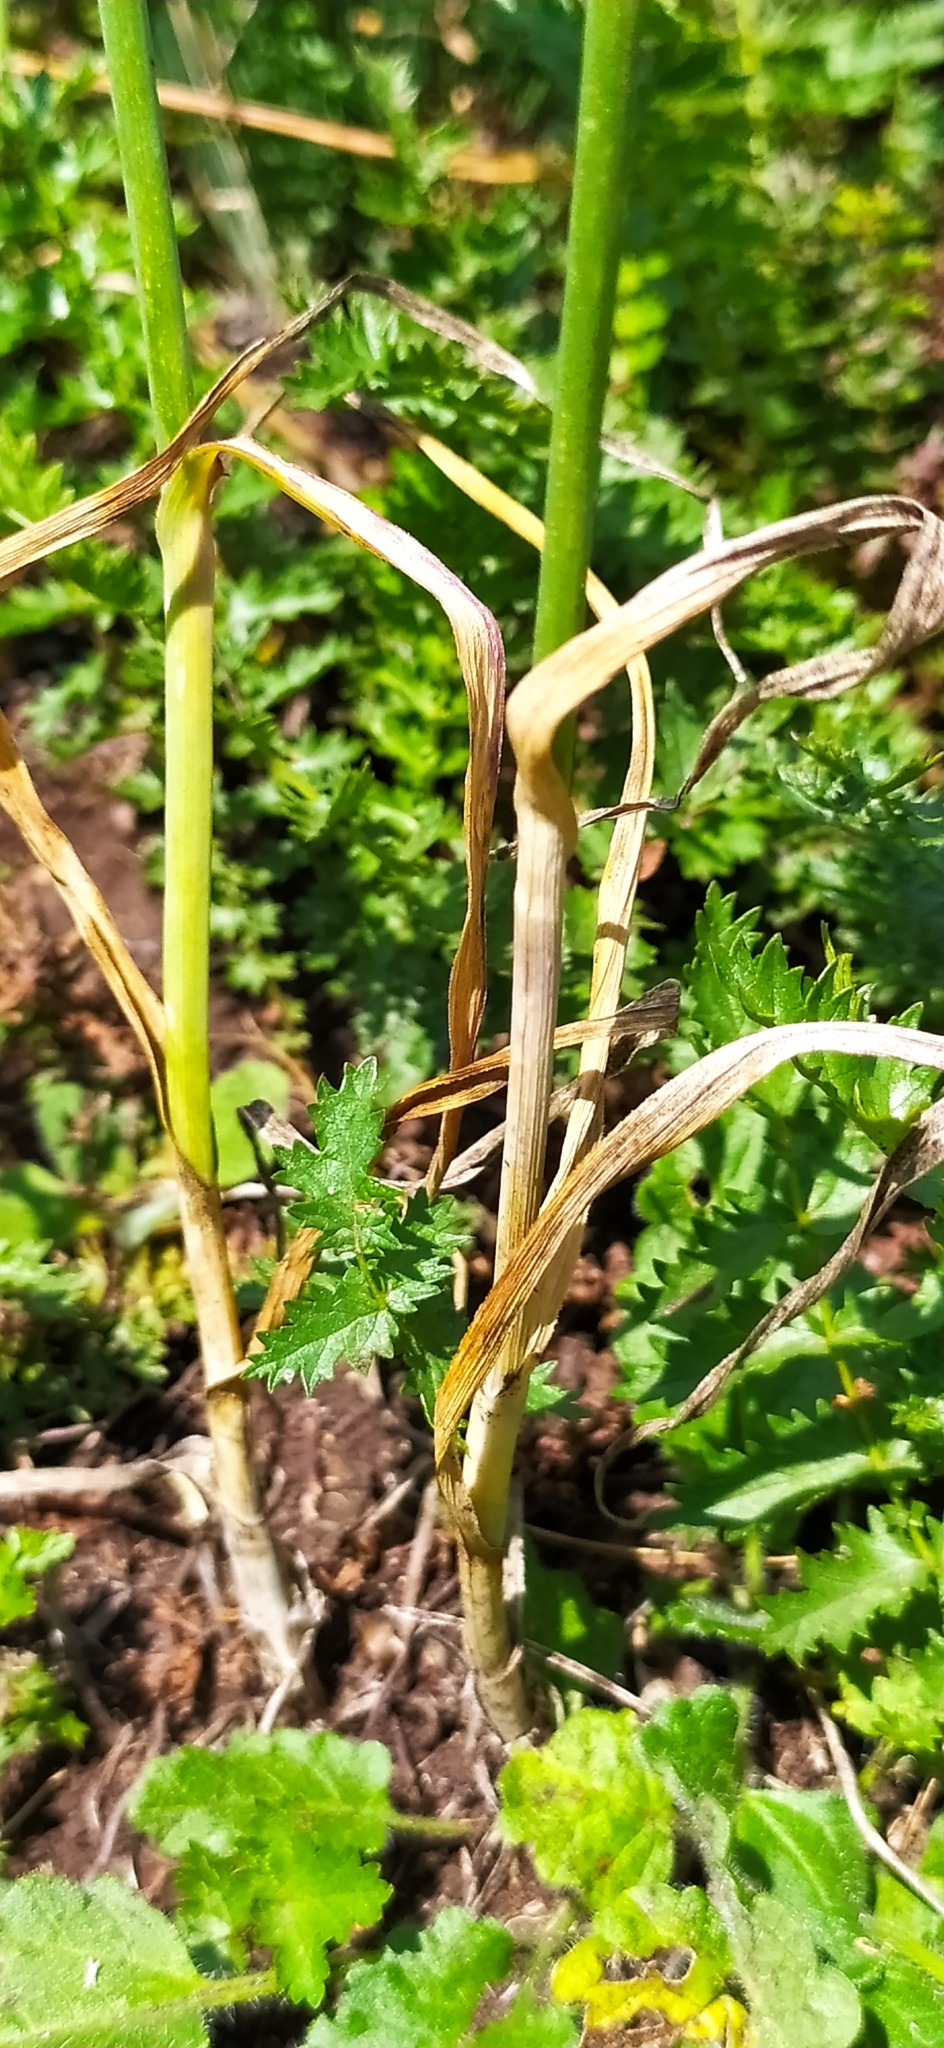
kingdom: Plantae
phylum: Tracheophyta
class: Liliopsida
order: Asparagales
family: Amaryllidaceae
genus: Allium
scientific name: Allium rotundum
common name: Sand leek
